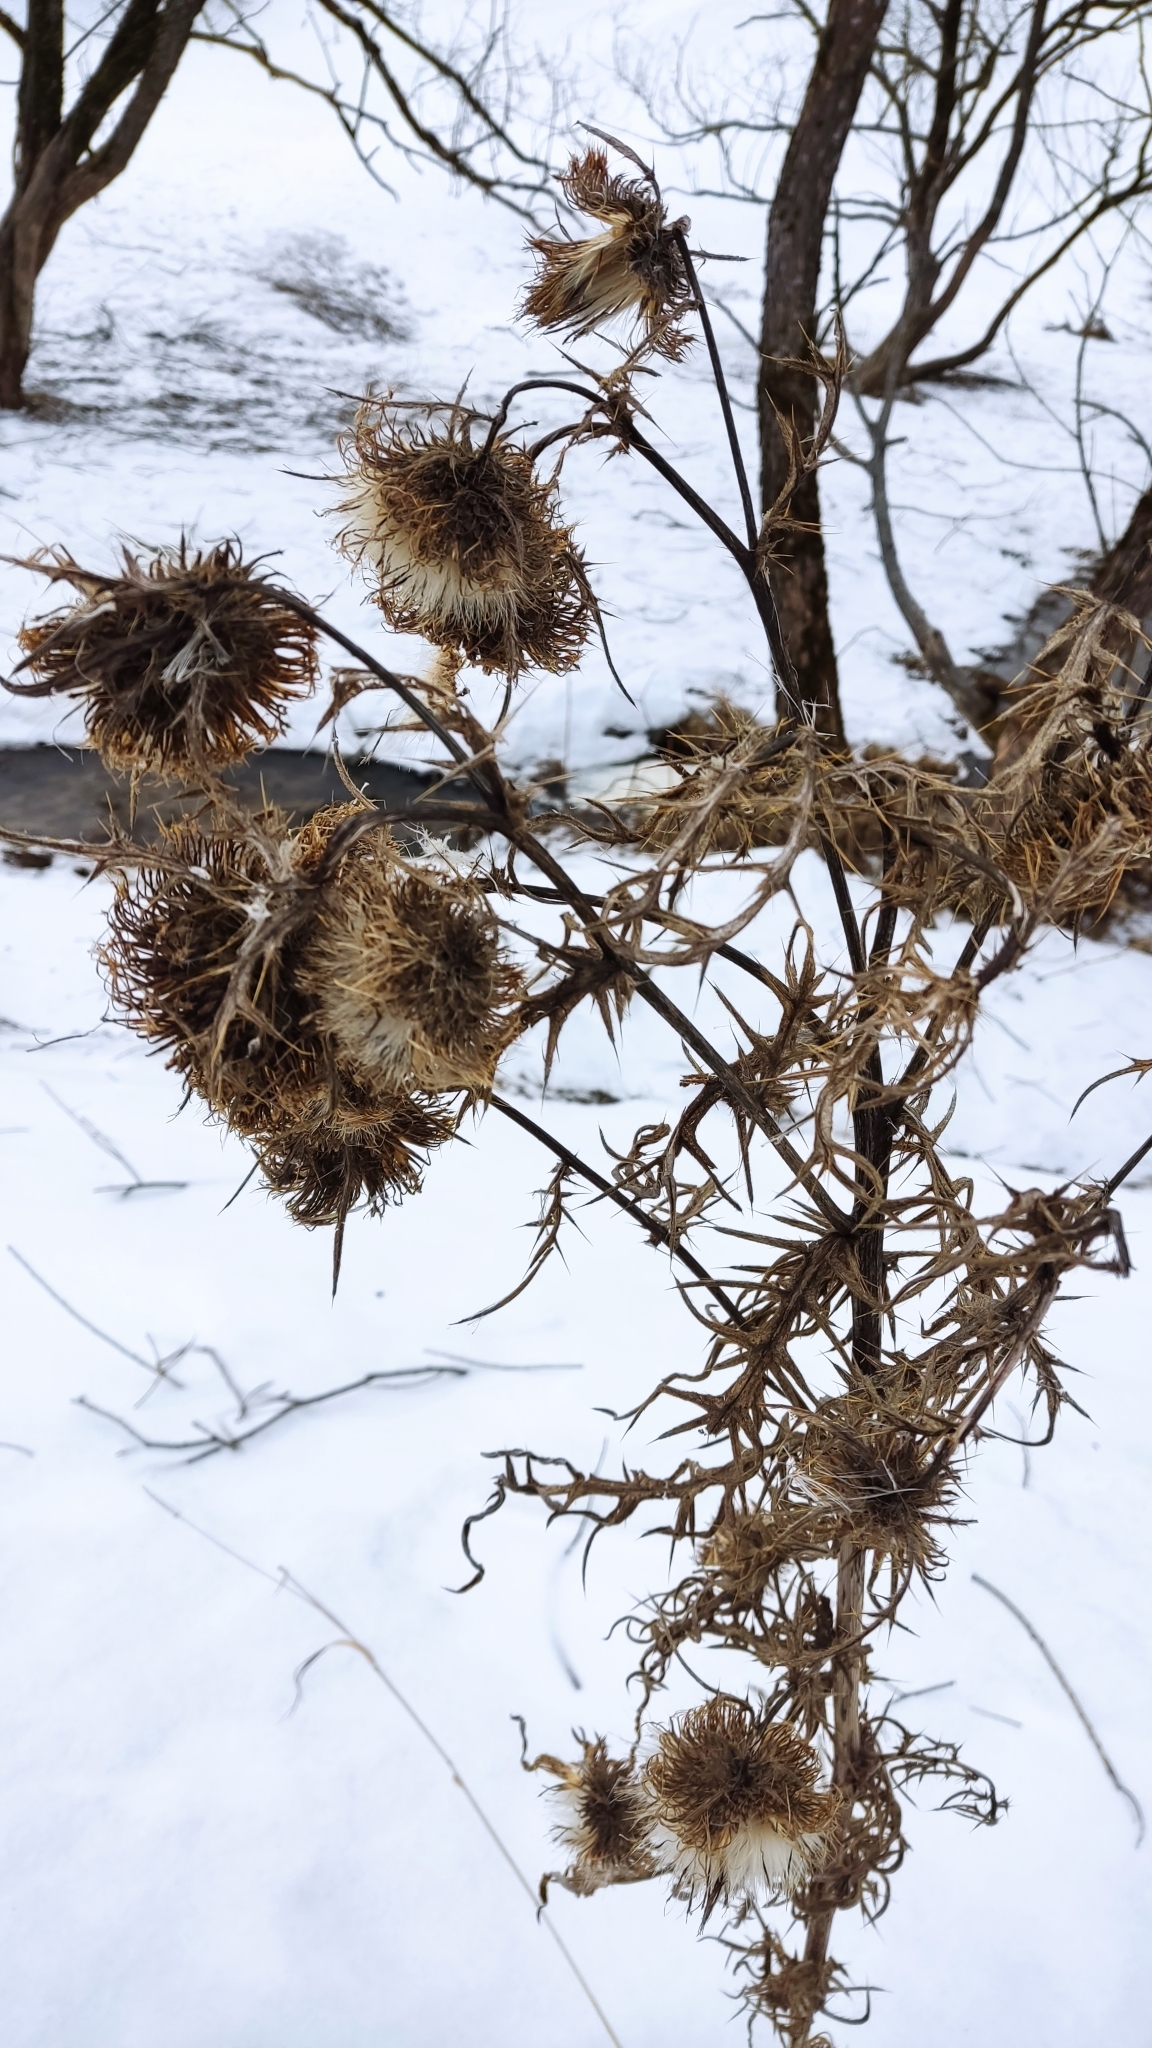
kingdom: Plantae
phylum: Tracheophyta
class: Magnoliopsida
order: Asterales
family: Asteraceae
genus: Lophiolepis
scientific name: Lophiolepis decussata
